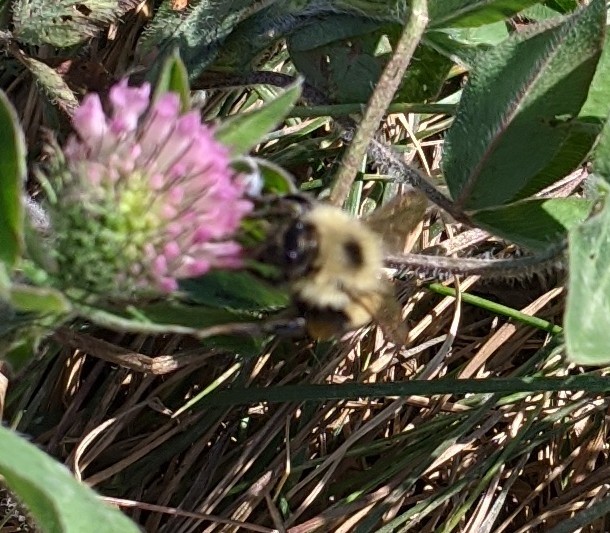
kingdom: Animalia
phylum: Arthropoda
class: Insecta
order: Hymenoptera
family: Apidae
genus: Pyrobombus
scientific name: Pyrobombus
